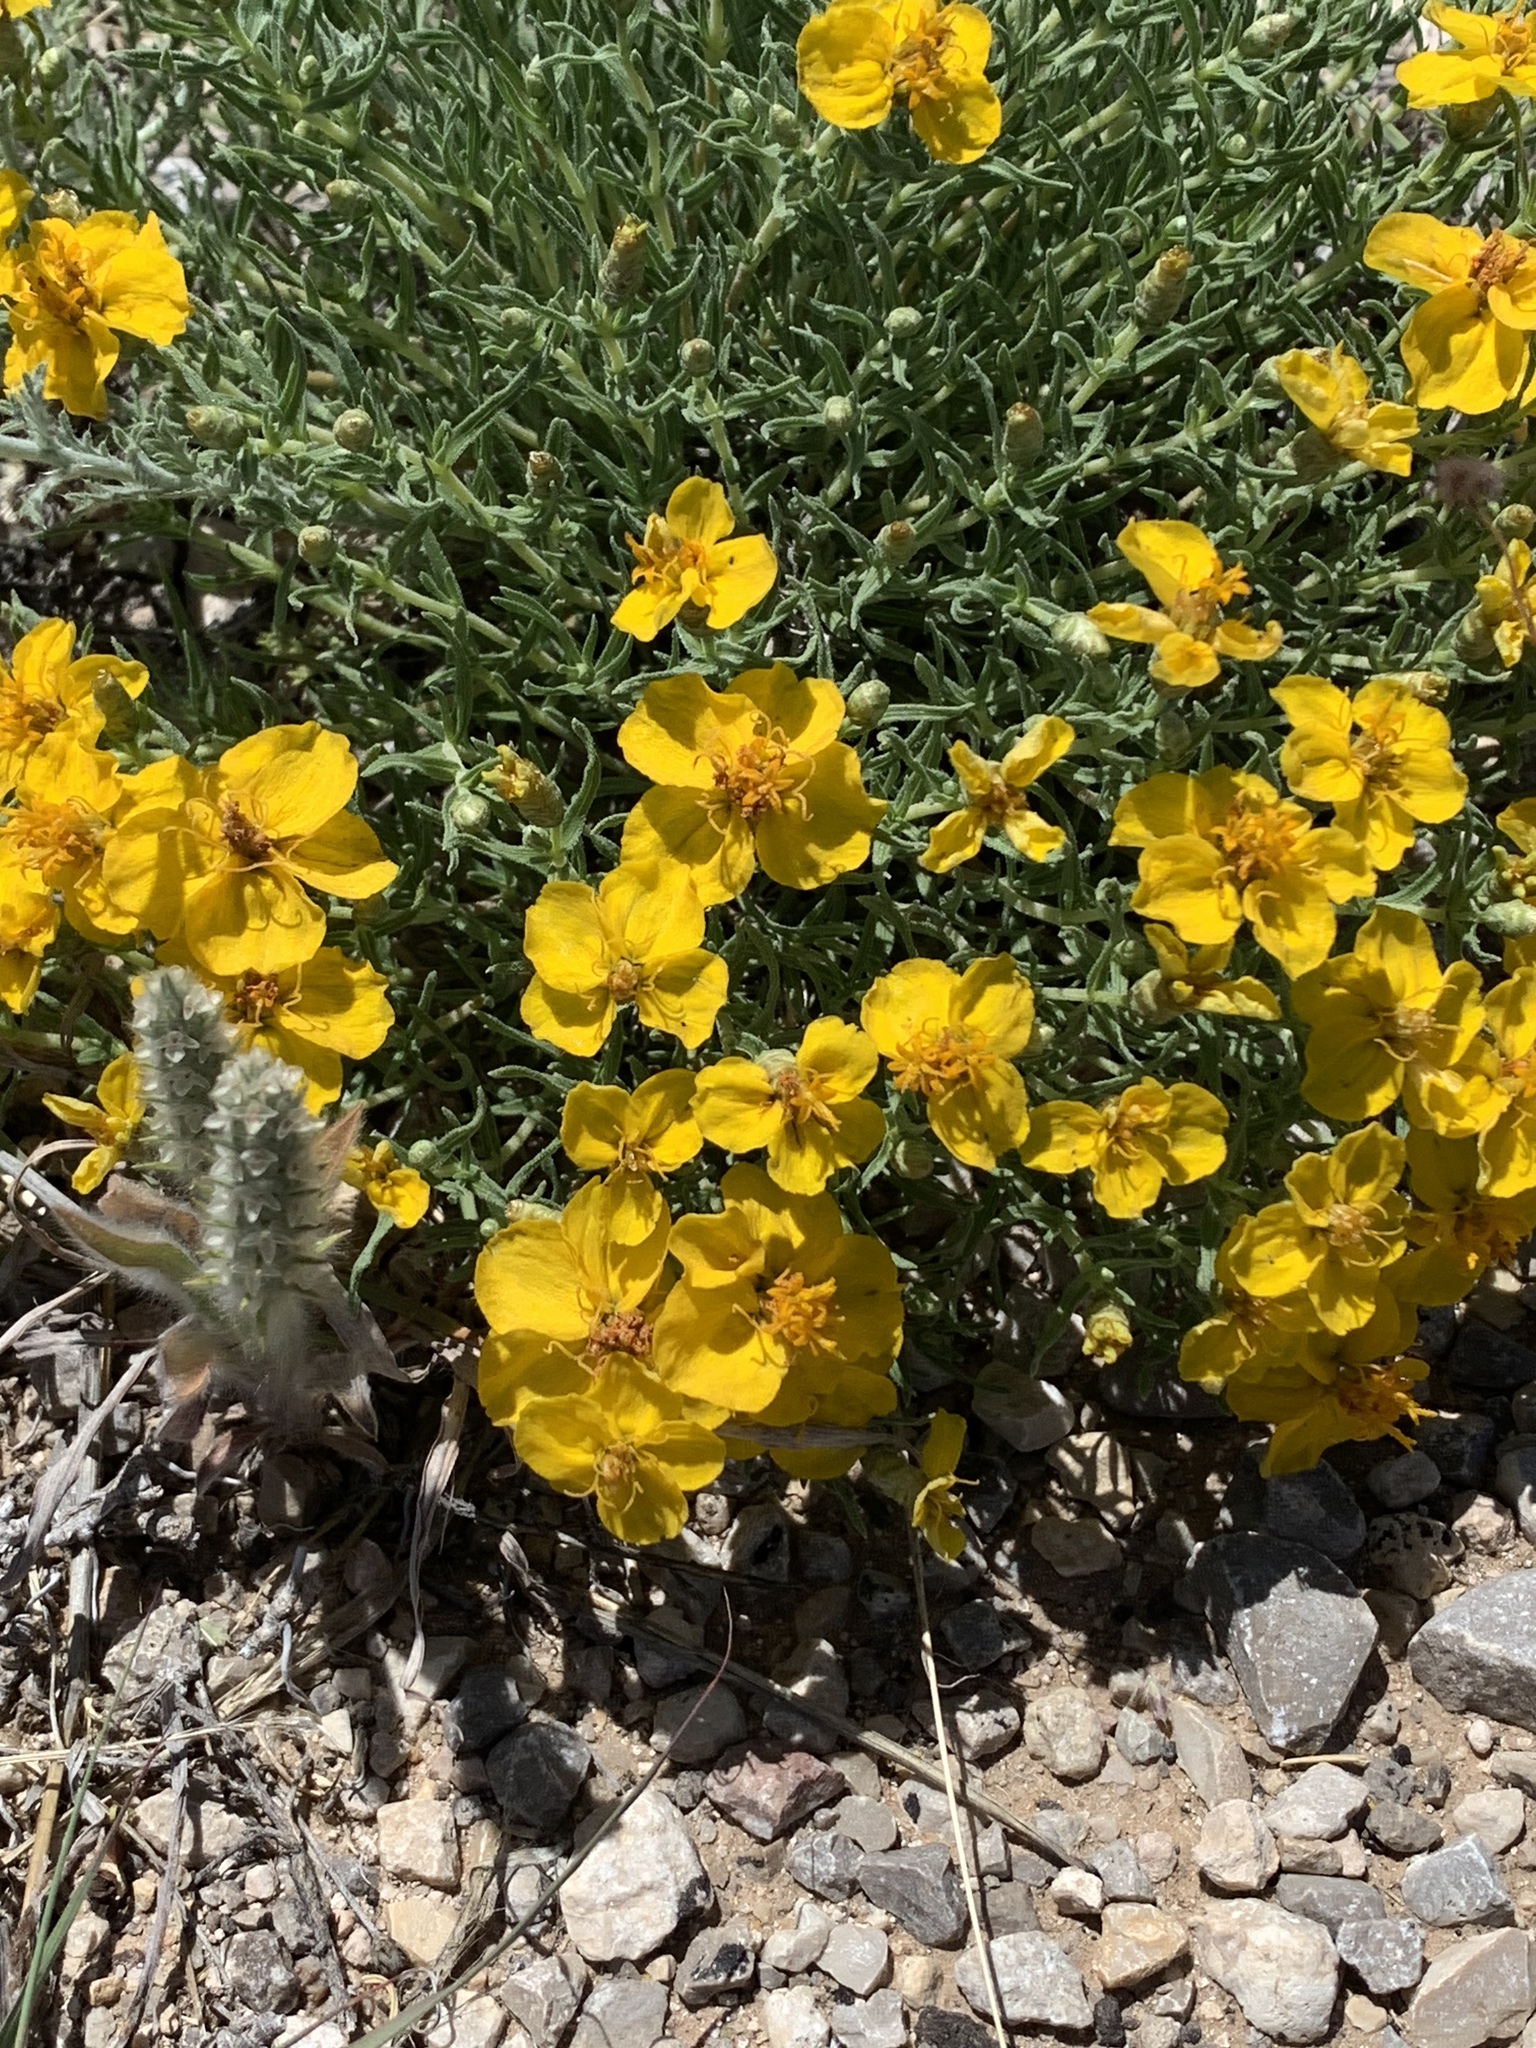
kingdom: Plantae
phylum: Tracheophyta
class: Magnoliopsida
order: Asterales
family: Asteraceae
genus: Zinnia
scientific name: Zinnia grandiflora
